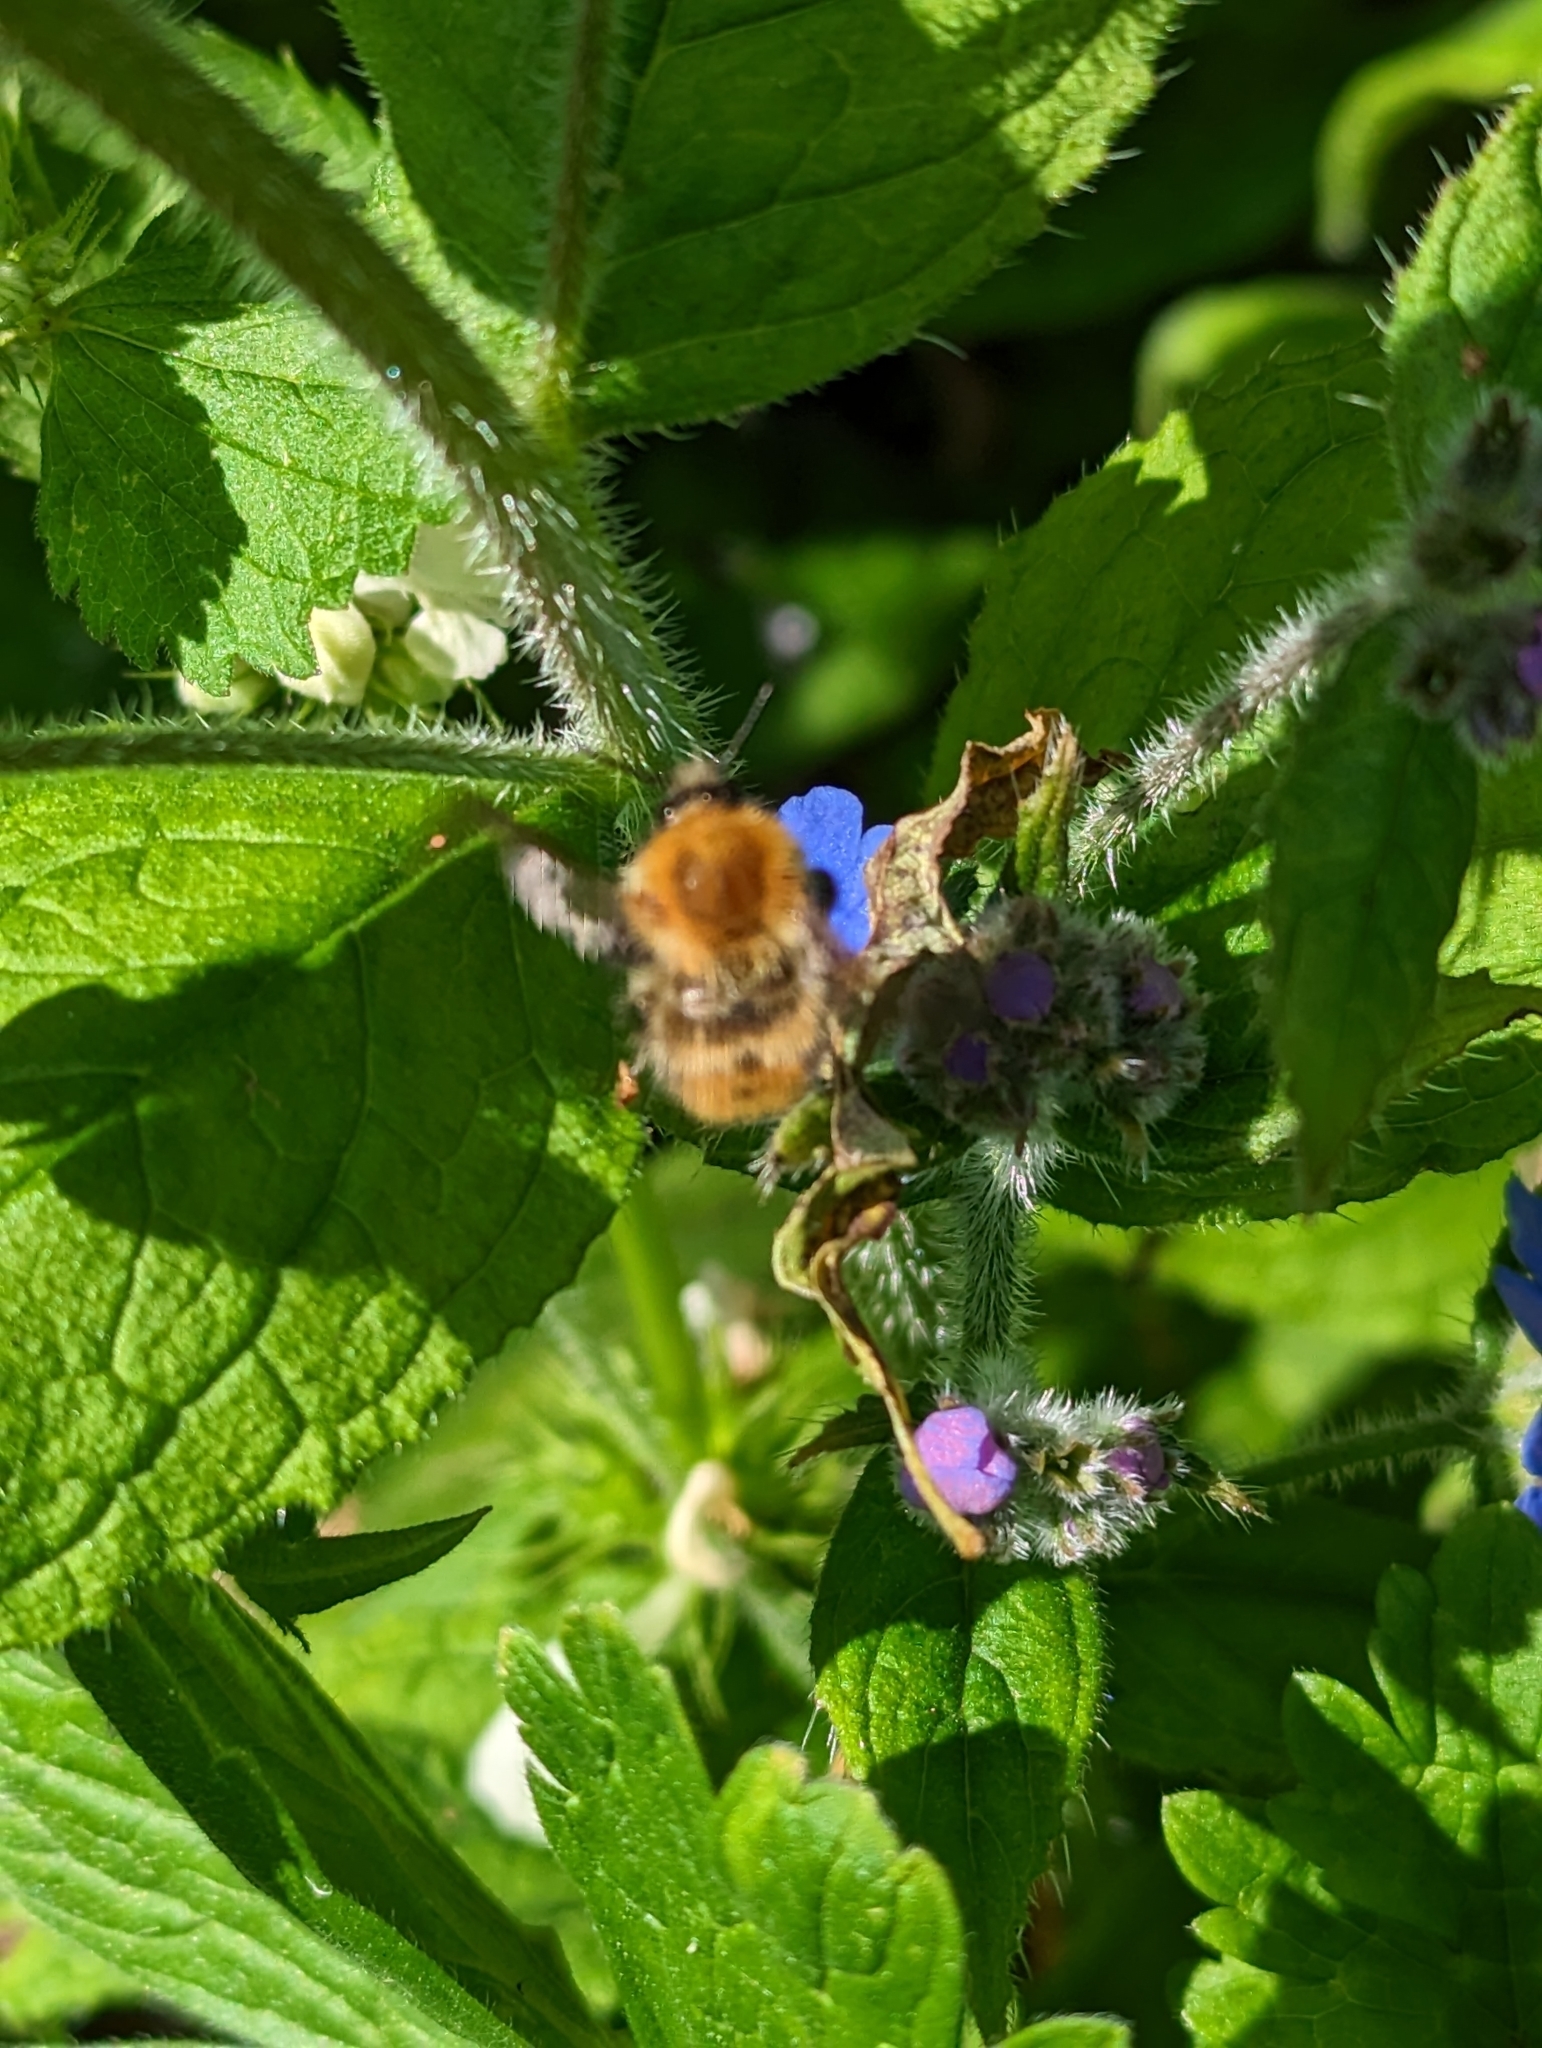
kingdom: Animalia
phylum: Arthropoda
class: Insecta
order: Hymenoptera
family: Apidae
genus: Bombus
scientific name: Bombus pascuorum
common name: Common carder bee
